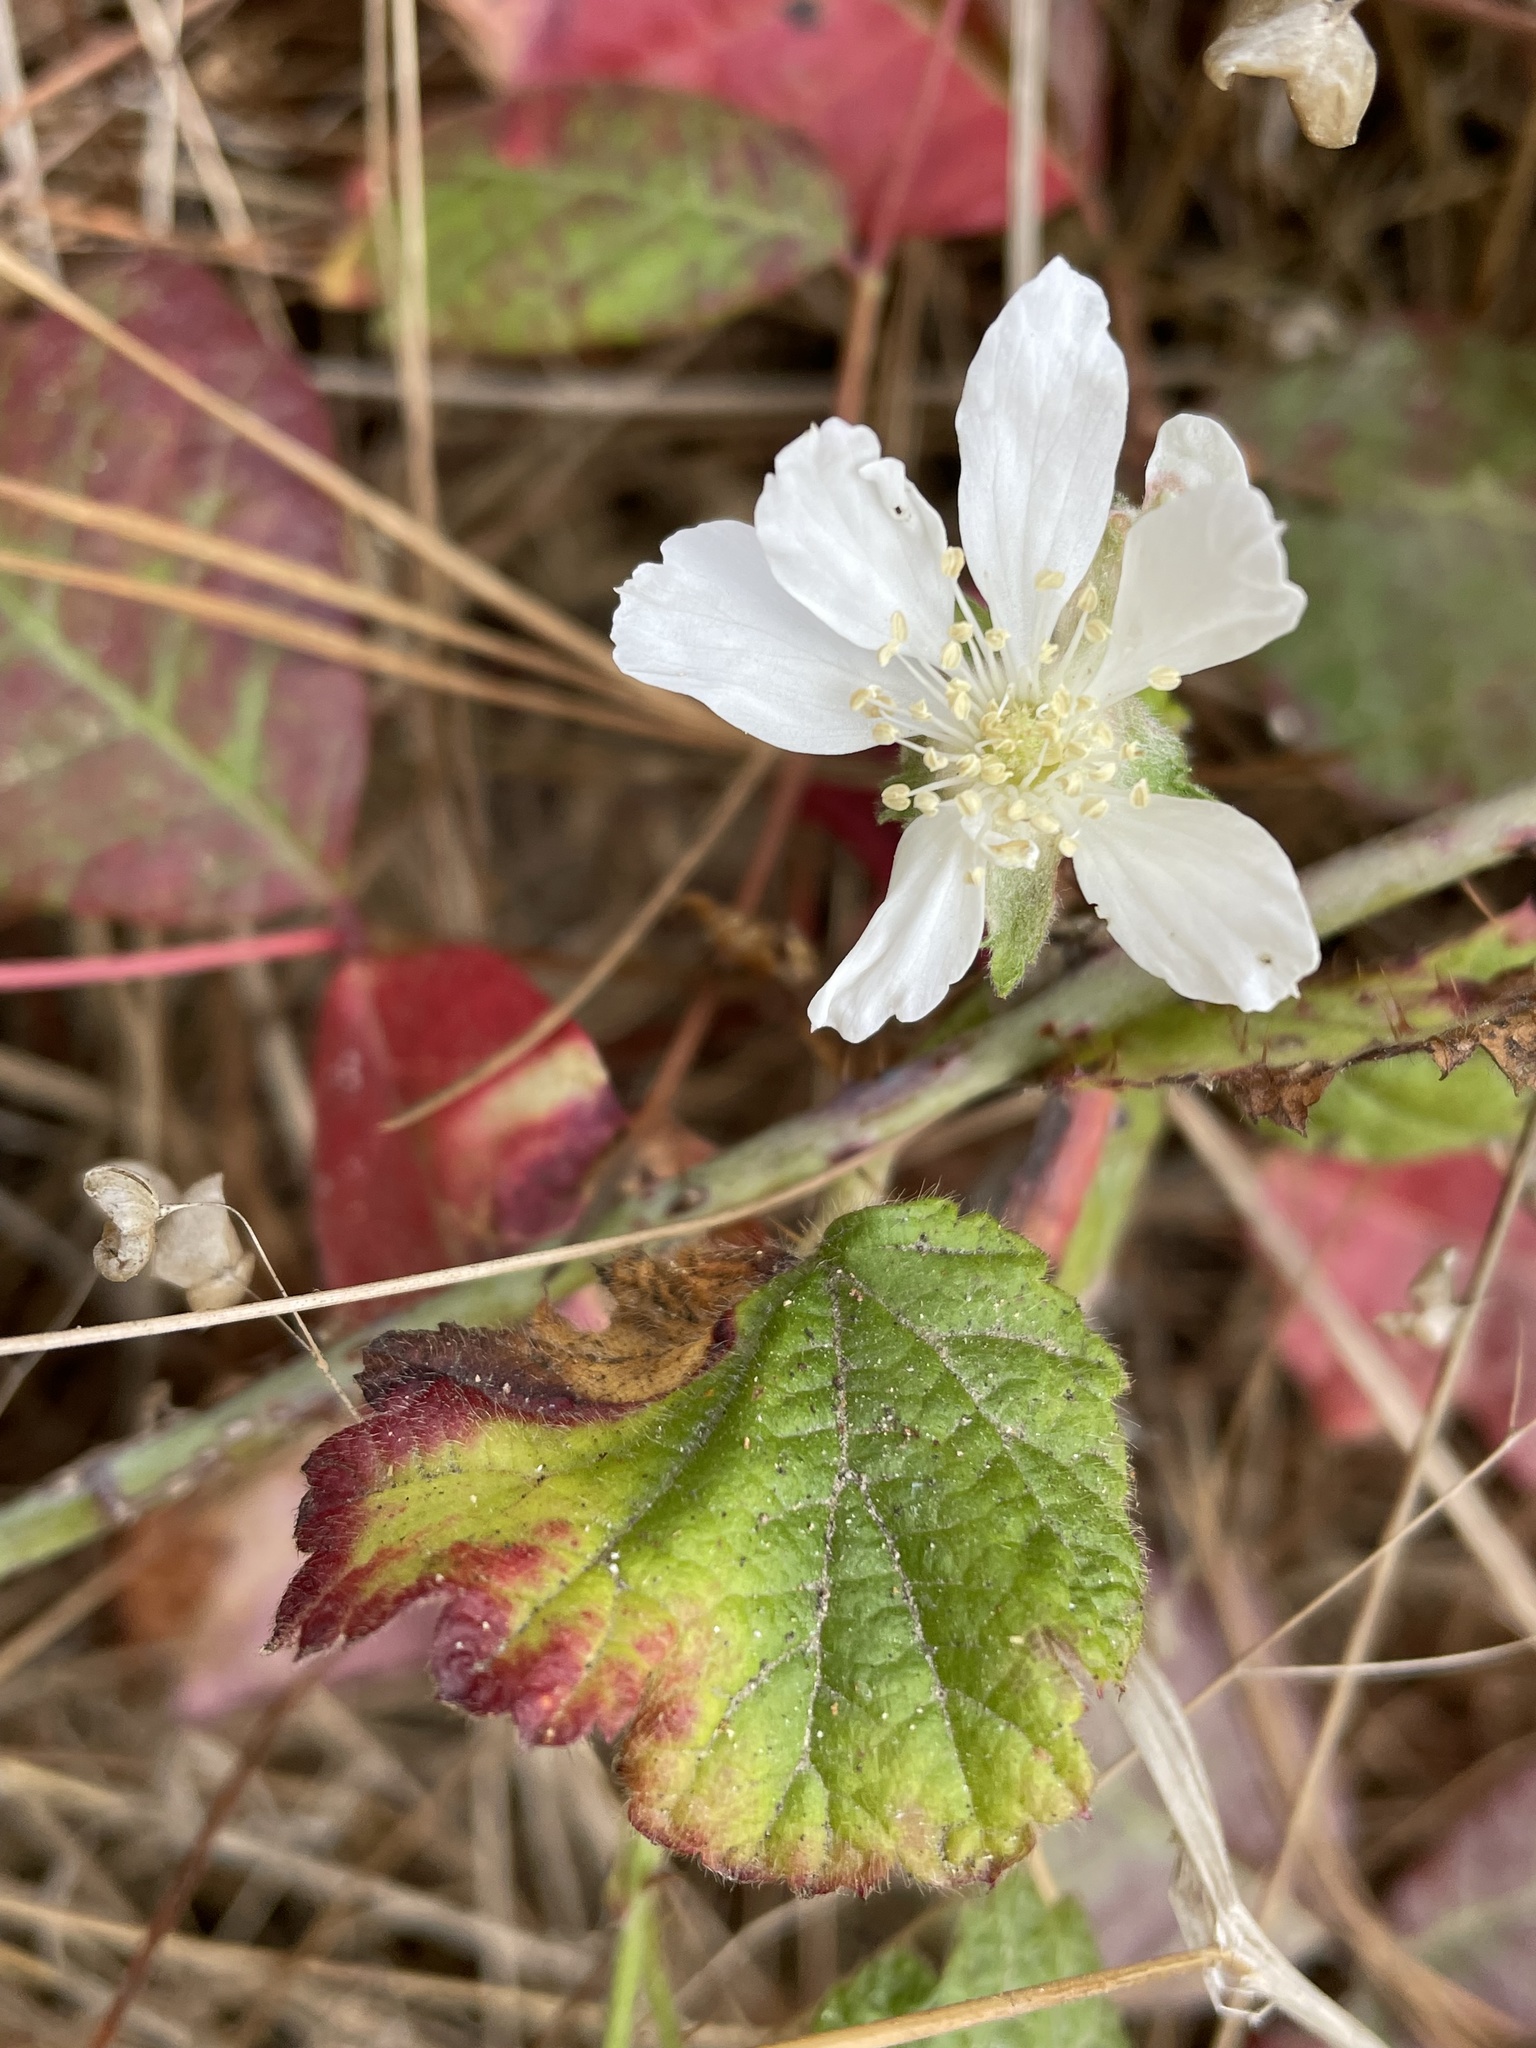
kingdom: Plantae
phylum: Tracheophyta
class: Magnoliopsida
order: Rosales
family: Rosaceae
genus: Rubus
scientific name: Rubus ursinus
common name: Pacific blackberry
